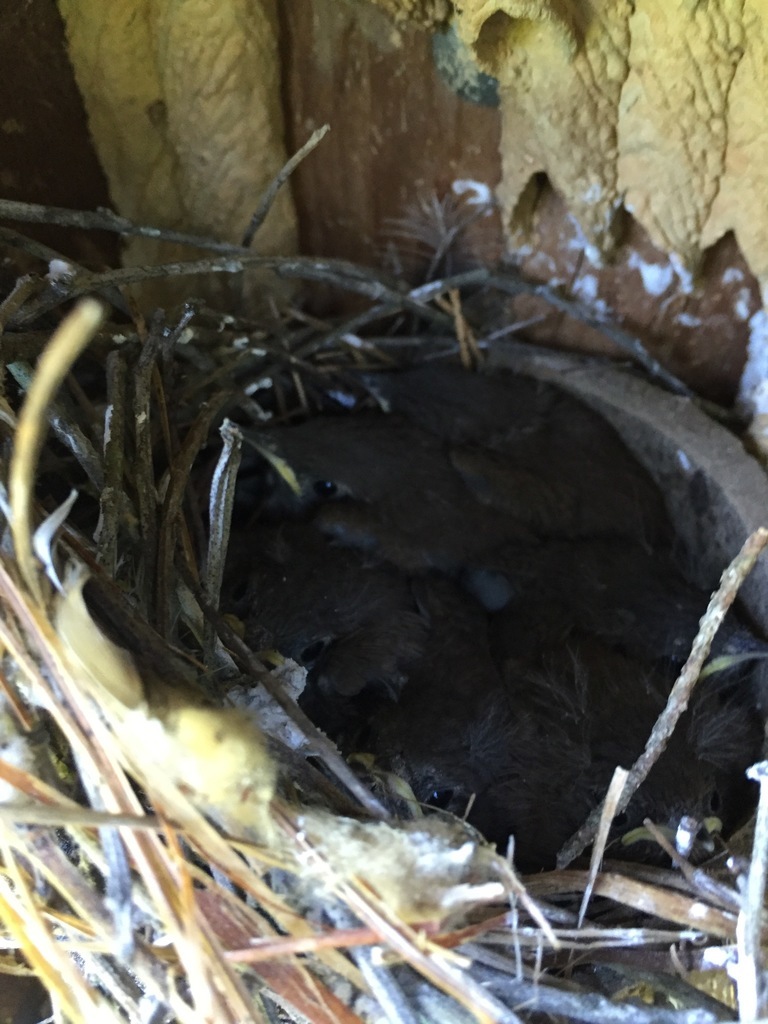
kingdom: Animalia
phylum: Chordata
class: Aves
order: Passeriformes
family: Troglodytidae
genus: Troglodytes
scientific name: Troglodytes aedon
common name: House wren
